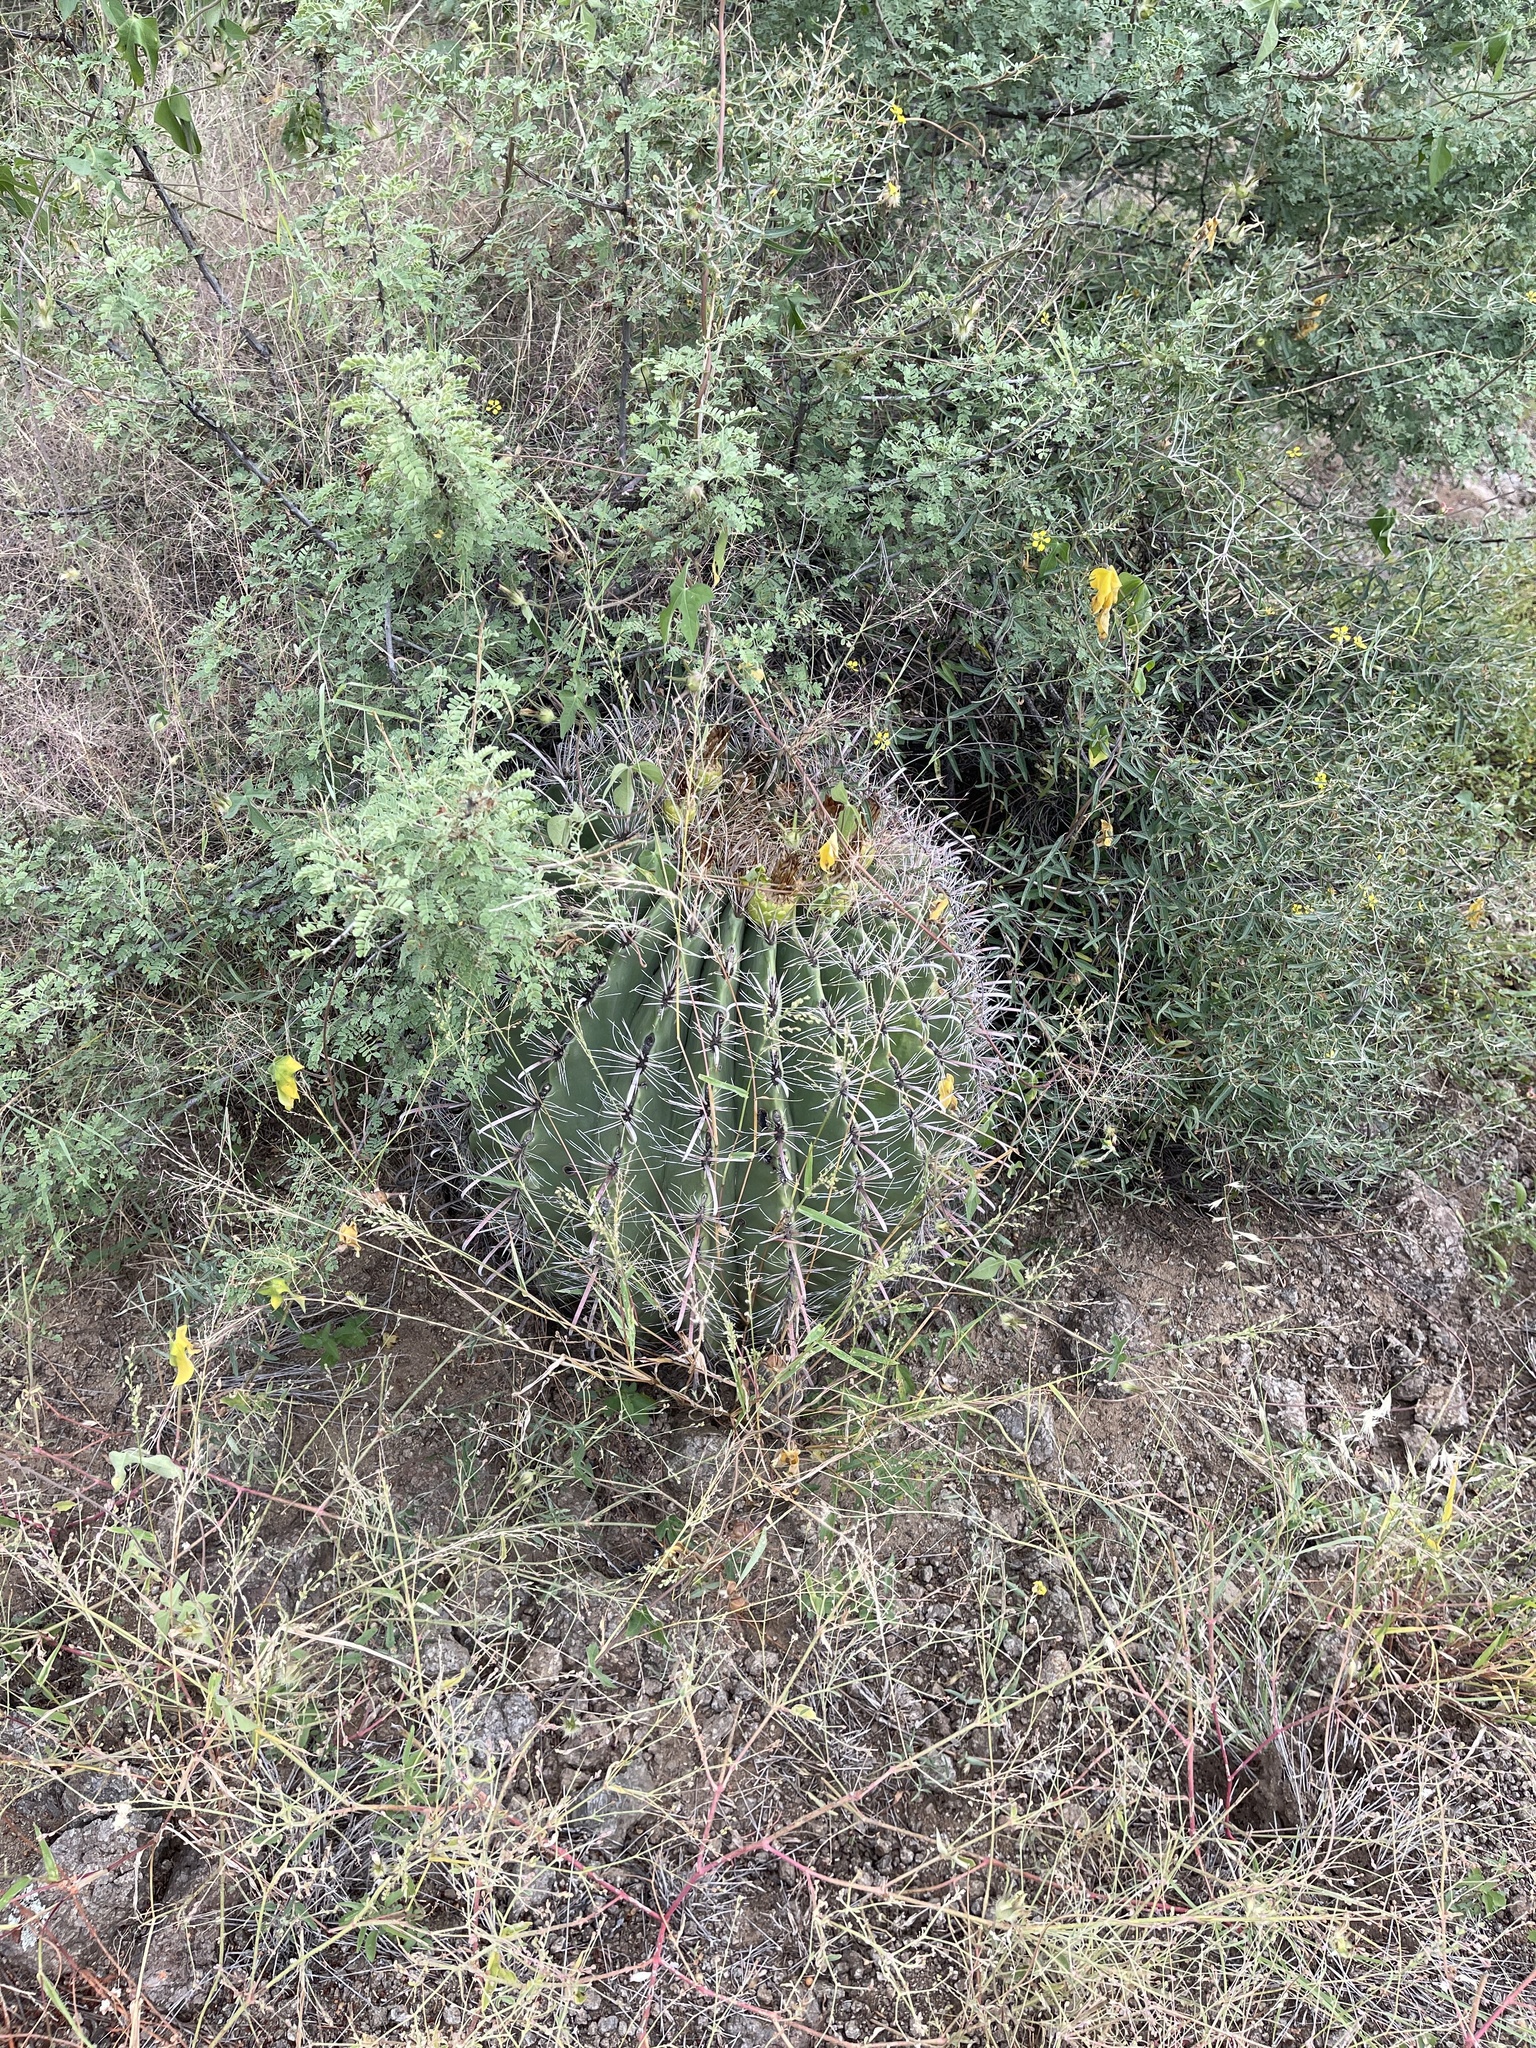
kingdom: Plantae
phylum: Tracheophyta
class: Magnoliopsida
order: Caryophyllales
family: Cactaceae
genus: Ferocactus
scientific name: Ferocactus wislizeni
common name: Candy barrel cactus
